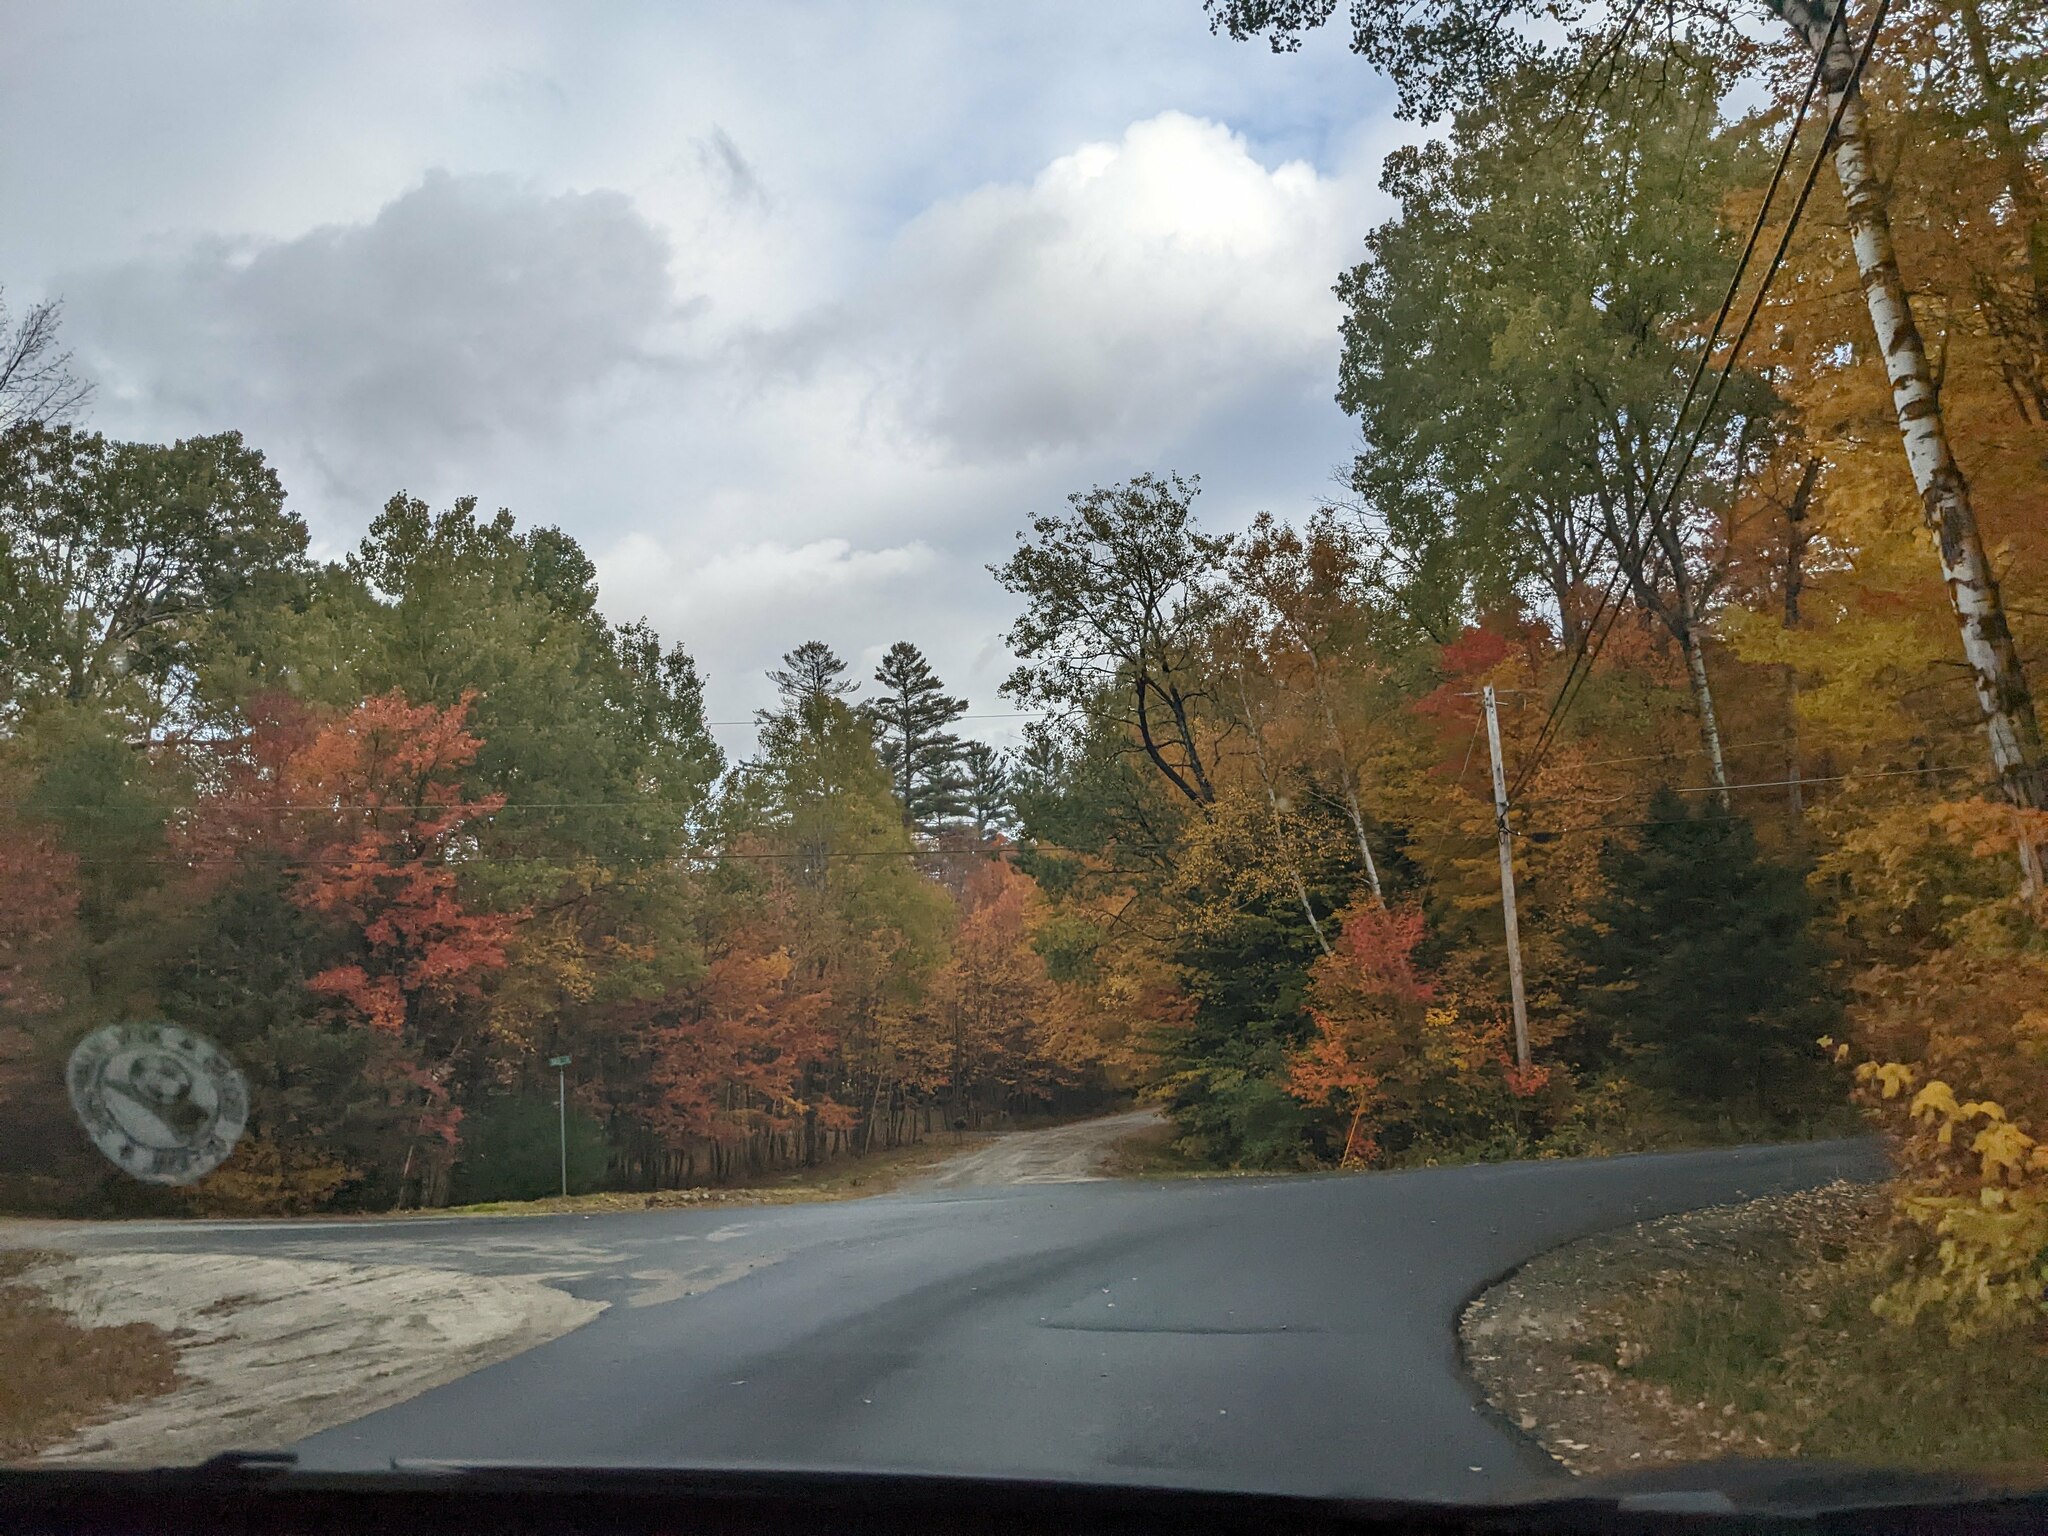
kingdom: Plantae
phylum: Tracheophyta
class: Pinopsida
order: Pinales
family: Pinaceae
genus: Pinus
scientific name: Pinus strobus
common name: Weymouth pine
